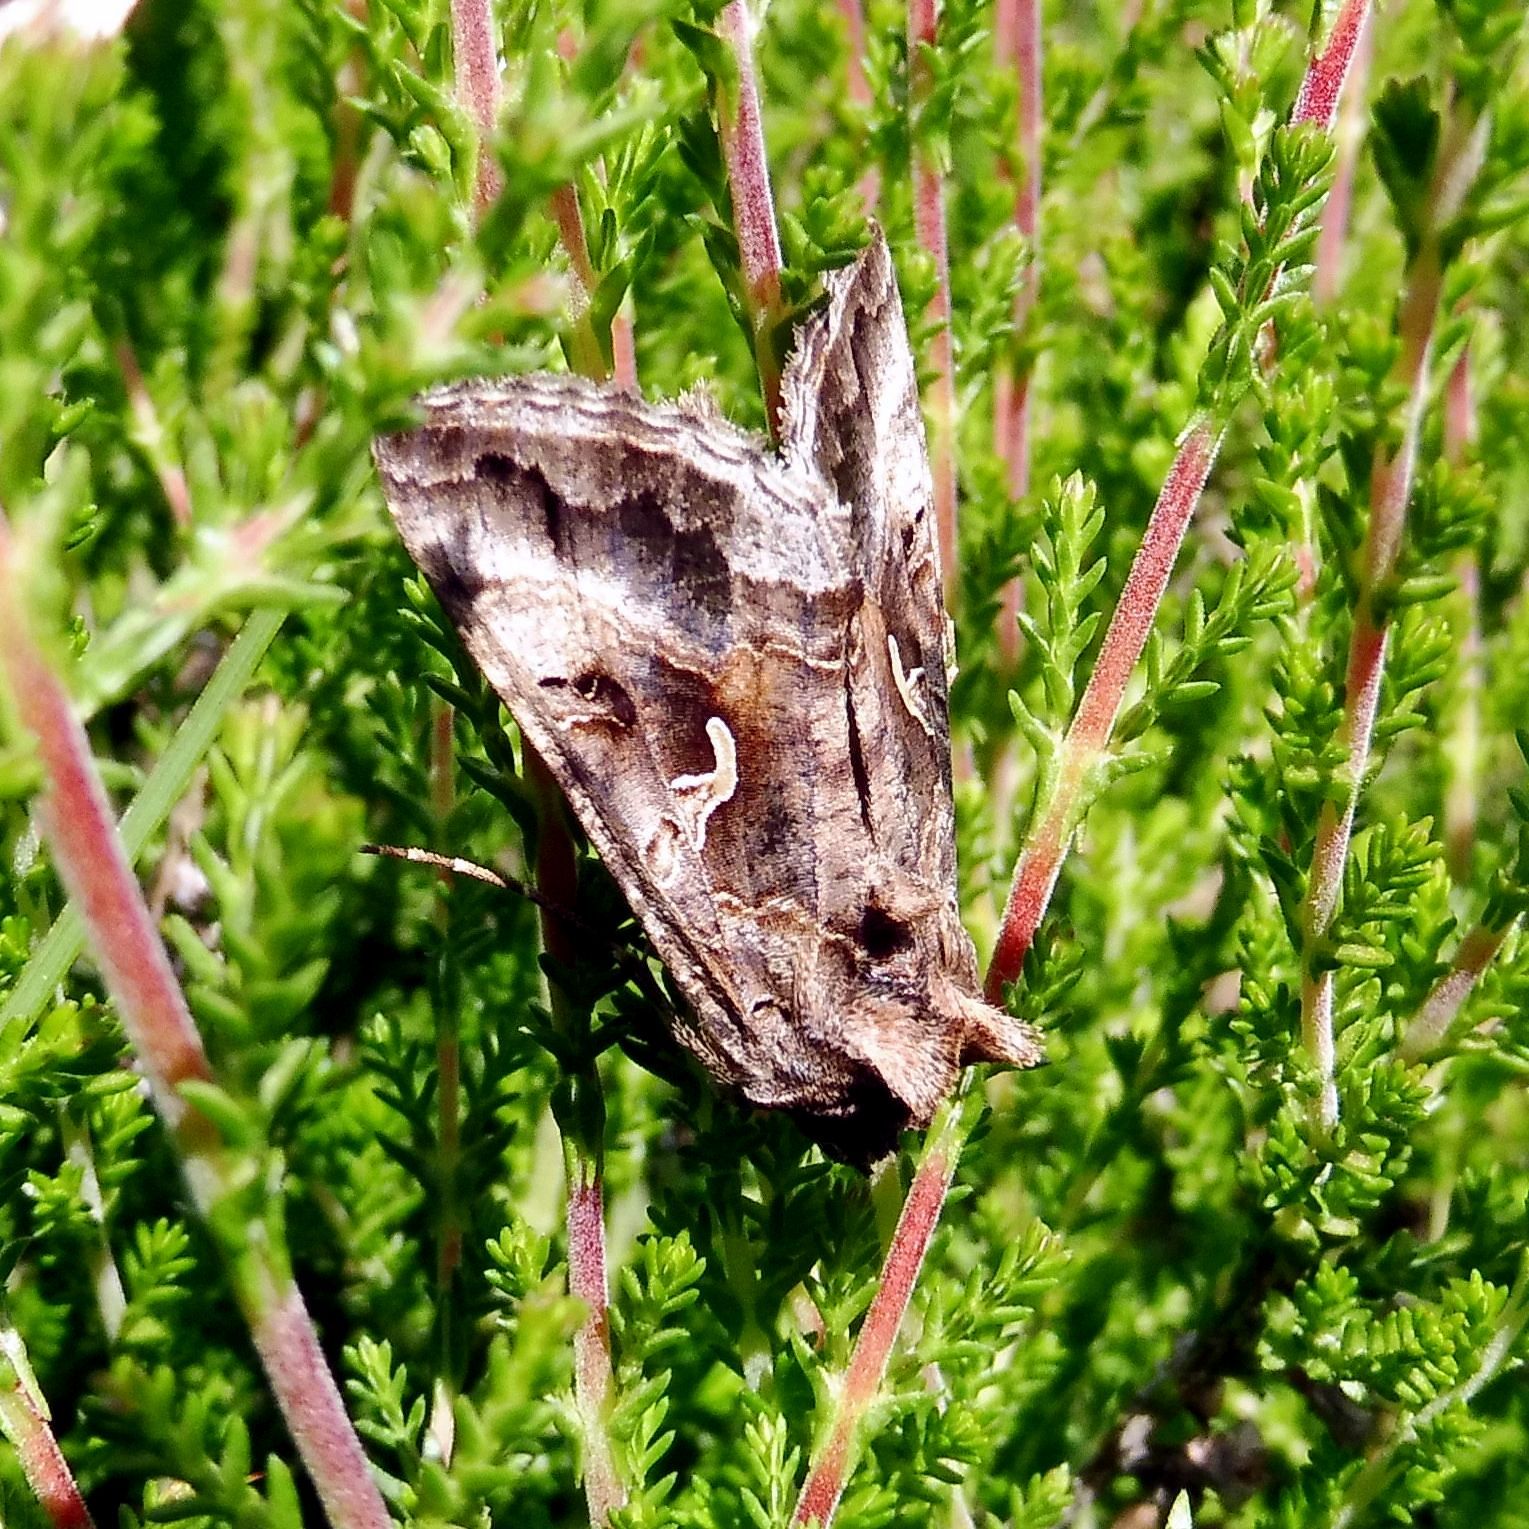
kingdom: Animalia
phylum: Arthropoda
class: Insecta
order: Lepidoptera
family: Noctuidae
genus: Autographa
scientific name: Autographa gamma
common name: Silver y
